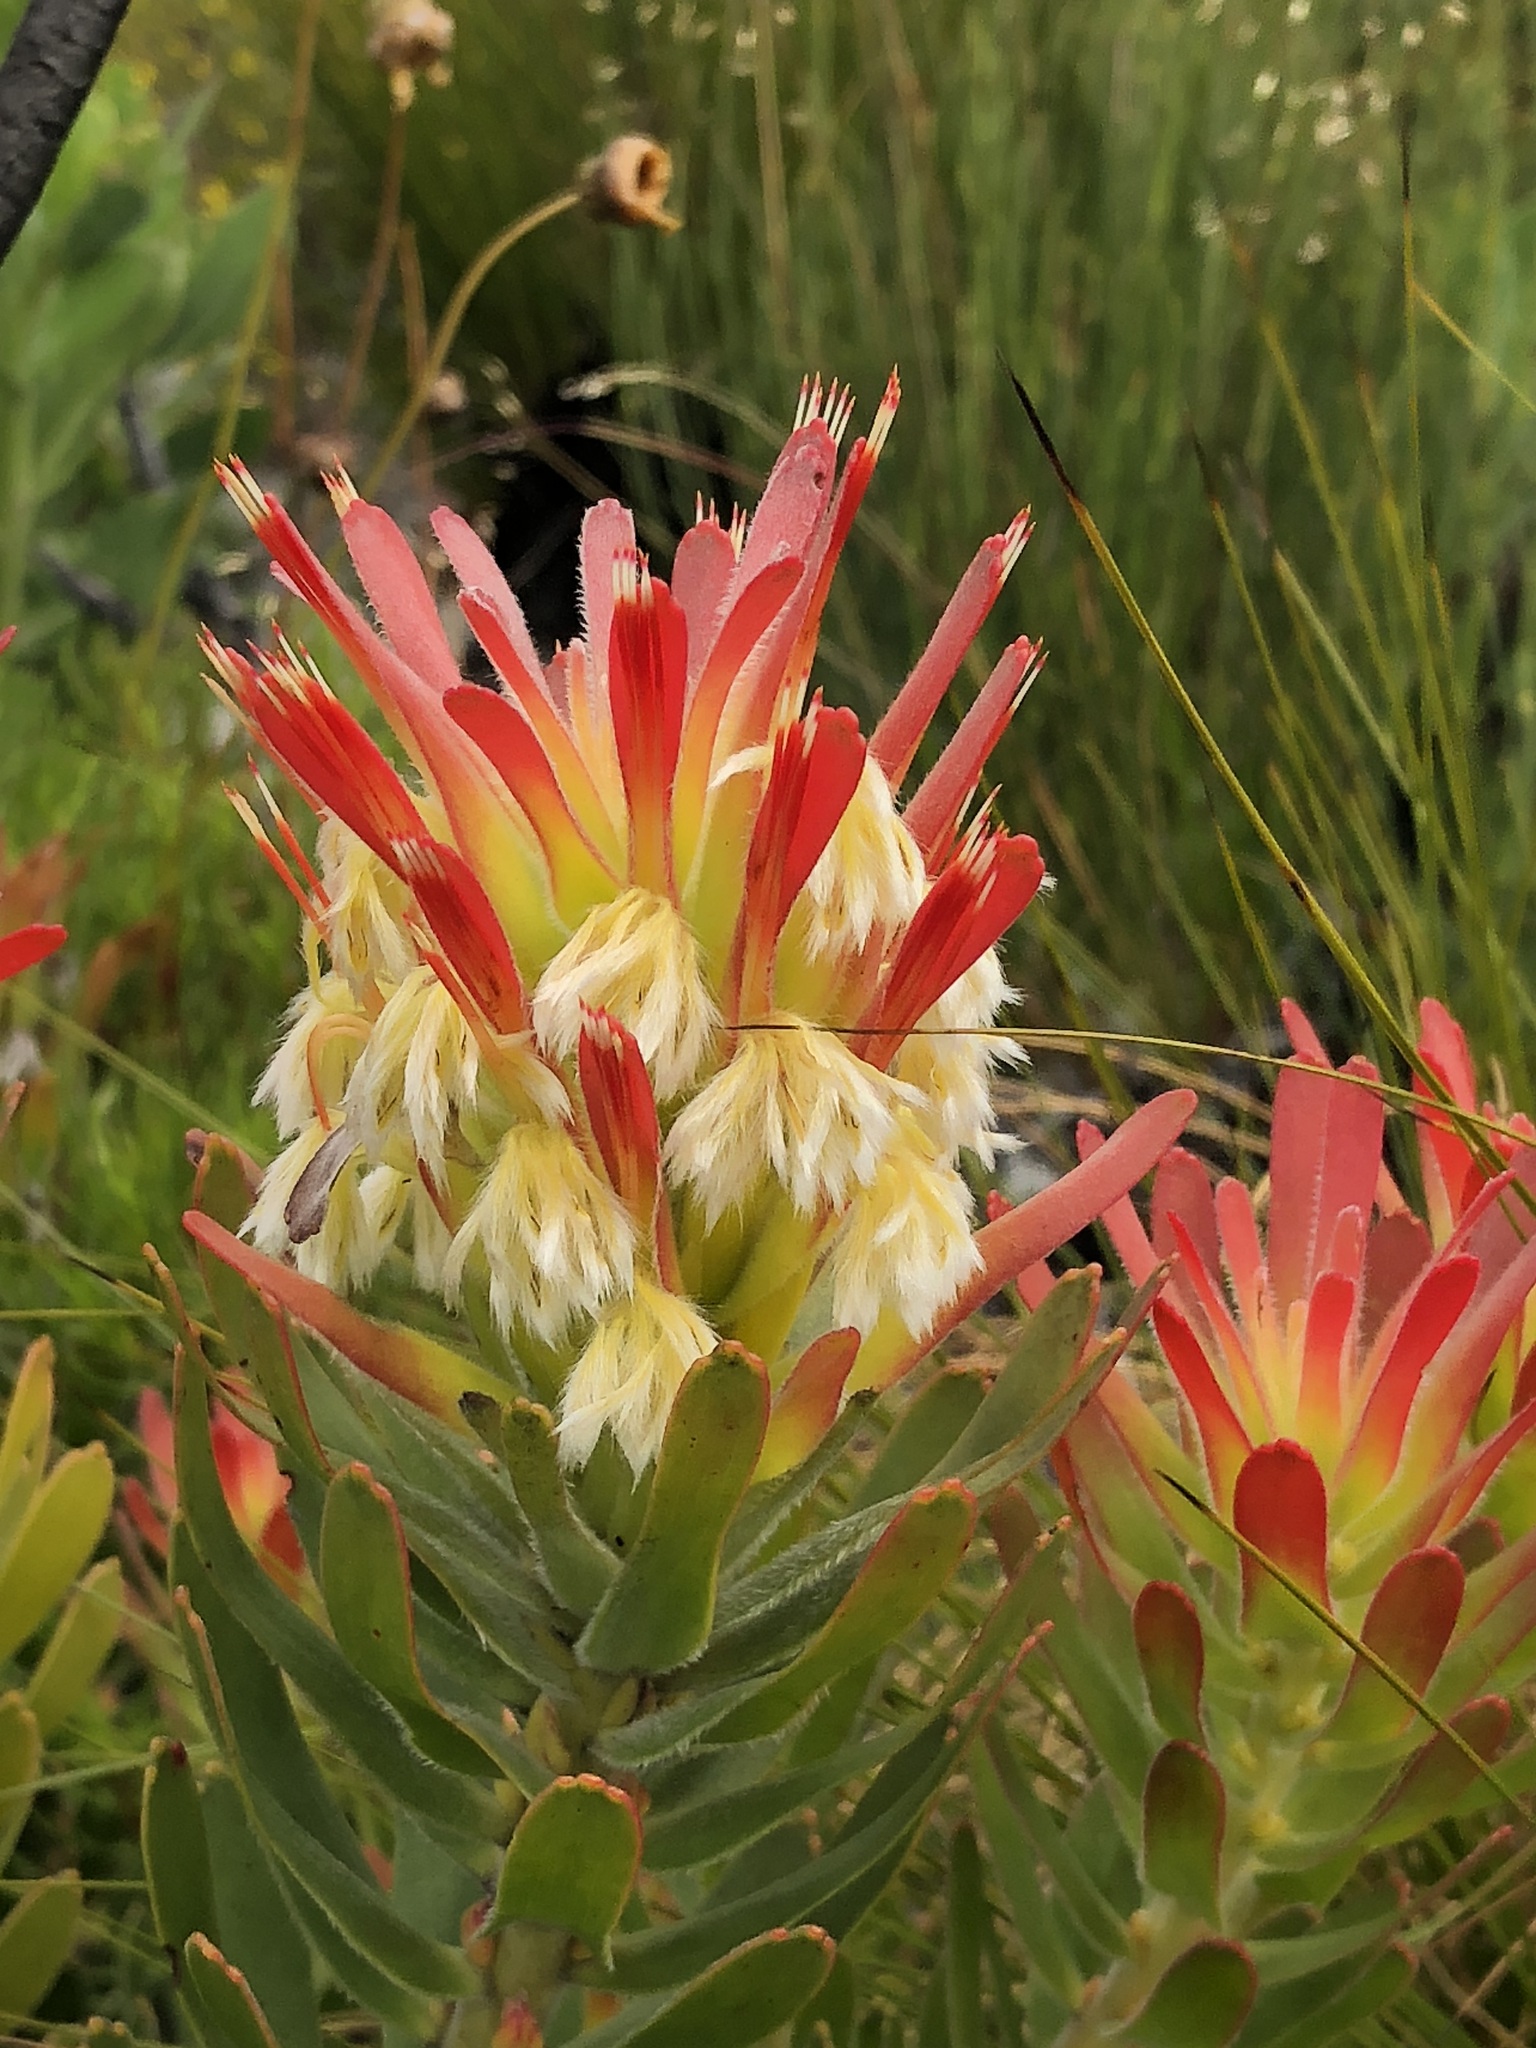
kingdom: Plantae
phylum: Tracheophyta
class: Magnoliopsida
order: Proteales
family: Proteaceae
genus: Mimetes
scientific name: Mimetes cucullatus
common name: Common pagoda
